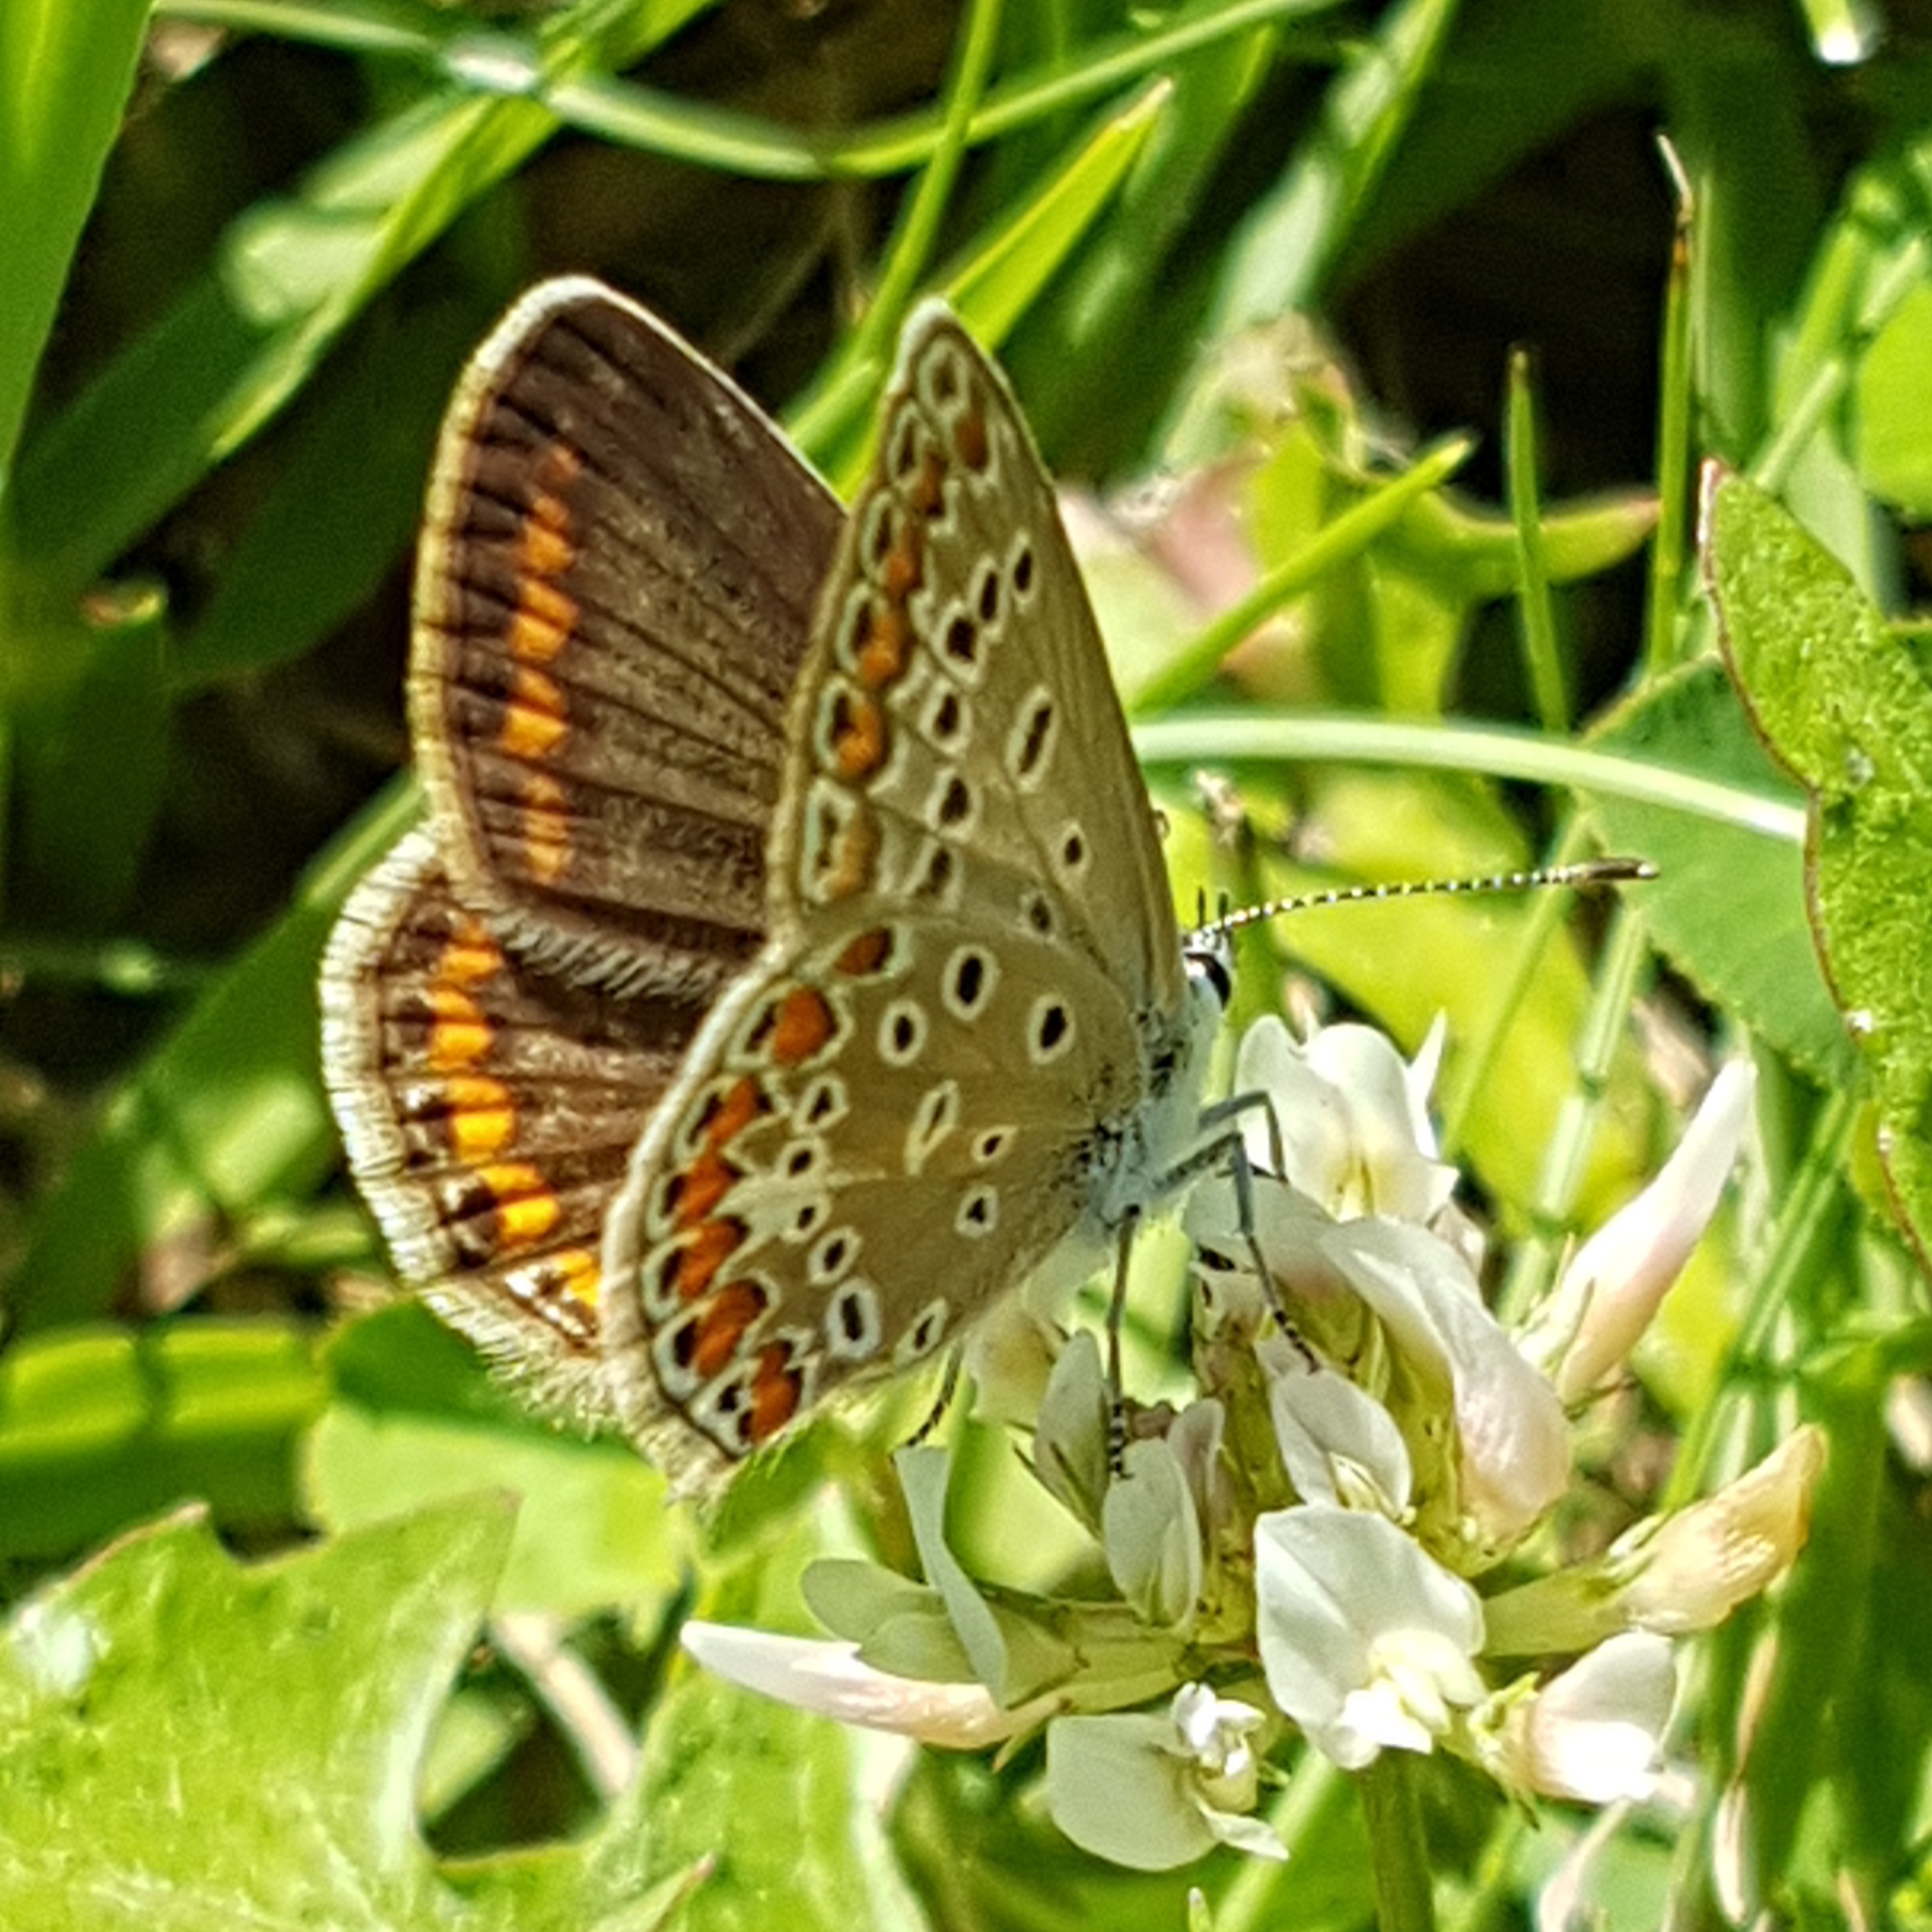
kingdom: Animalia
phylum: Arthropoda
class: Insecta
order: Lepidoptera
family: Lycaenidae
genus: Polyommatus
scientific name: Polyommatus icarus
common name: Common blue
